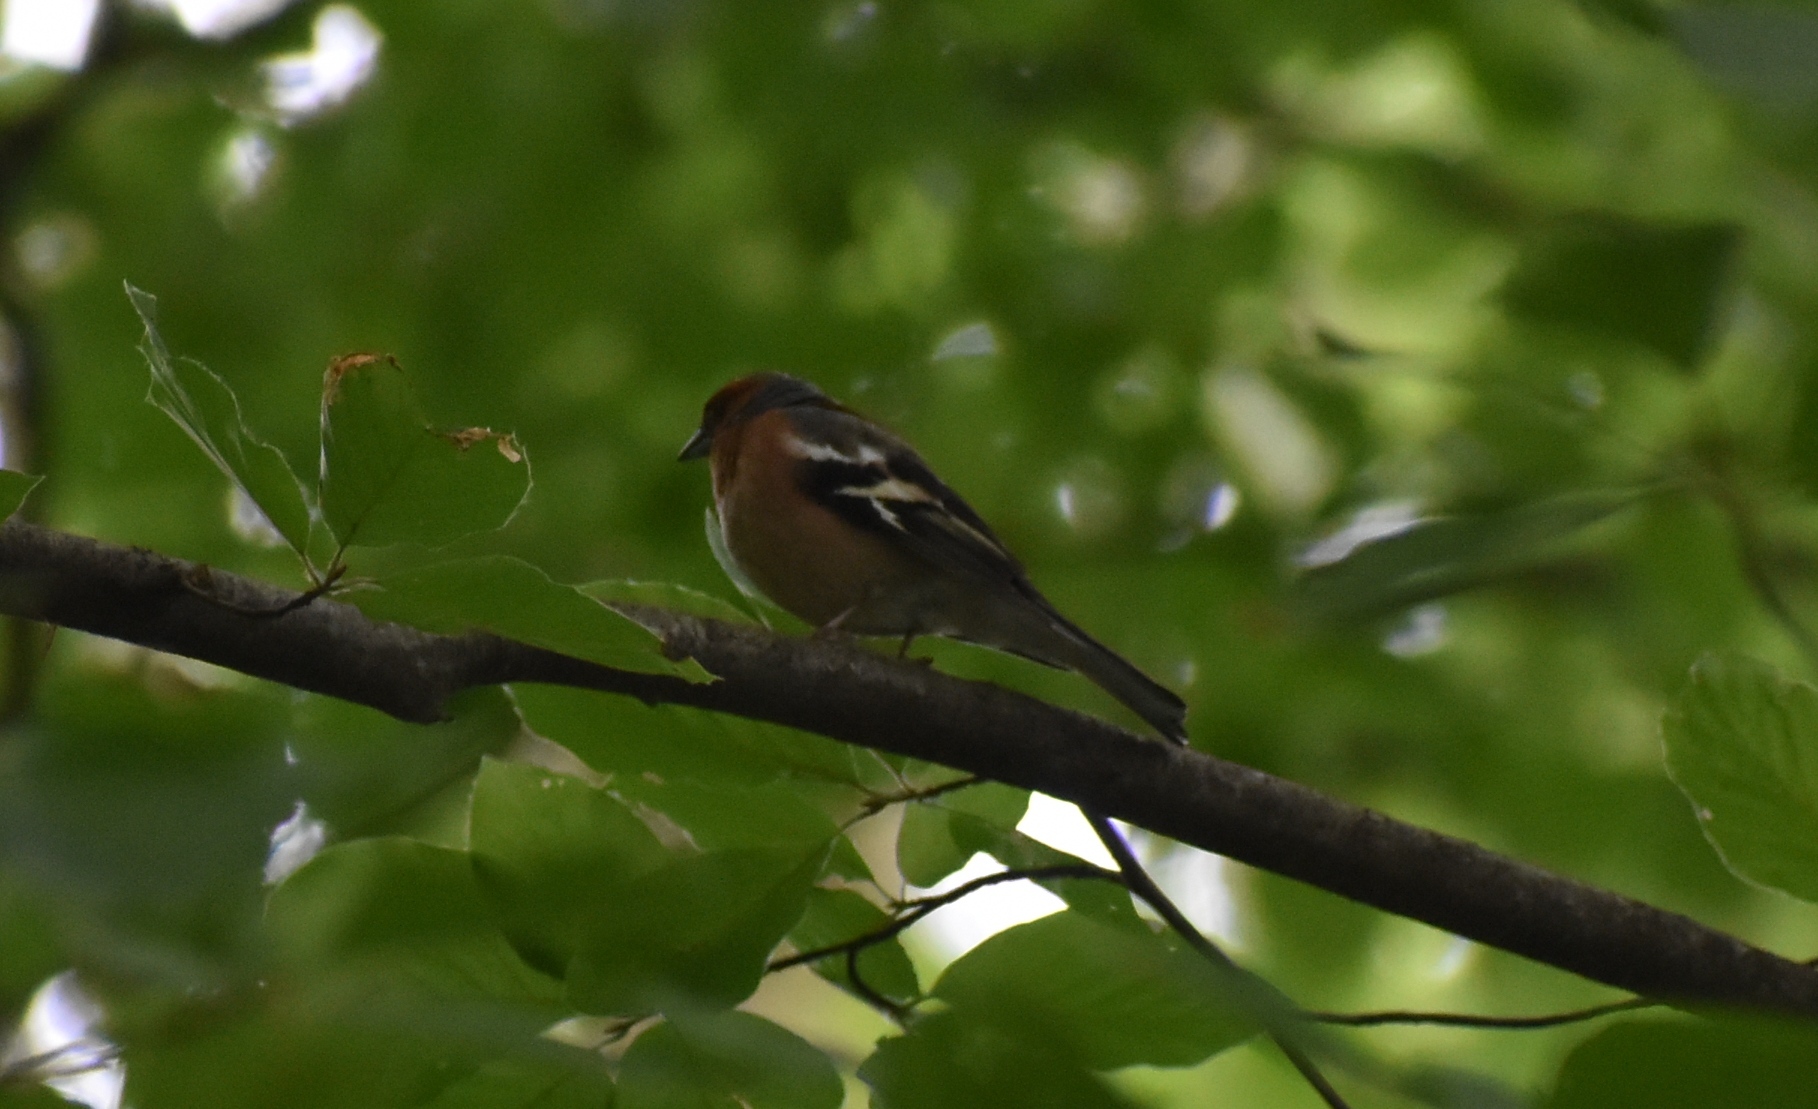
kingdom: Animalia
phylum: Chordata
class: Aves
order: Passeriformes
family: Fringillidae
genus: Fringilla
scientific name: Fringilla coelebs
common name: Common chaffinch
